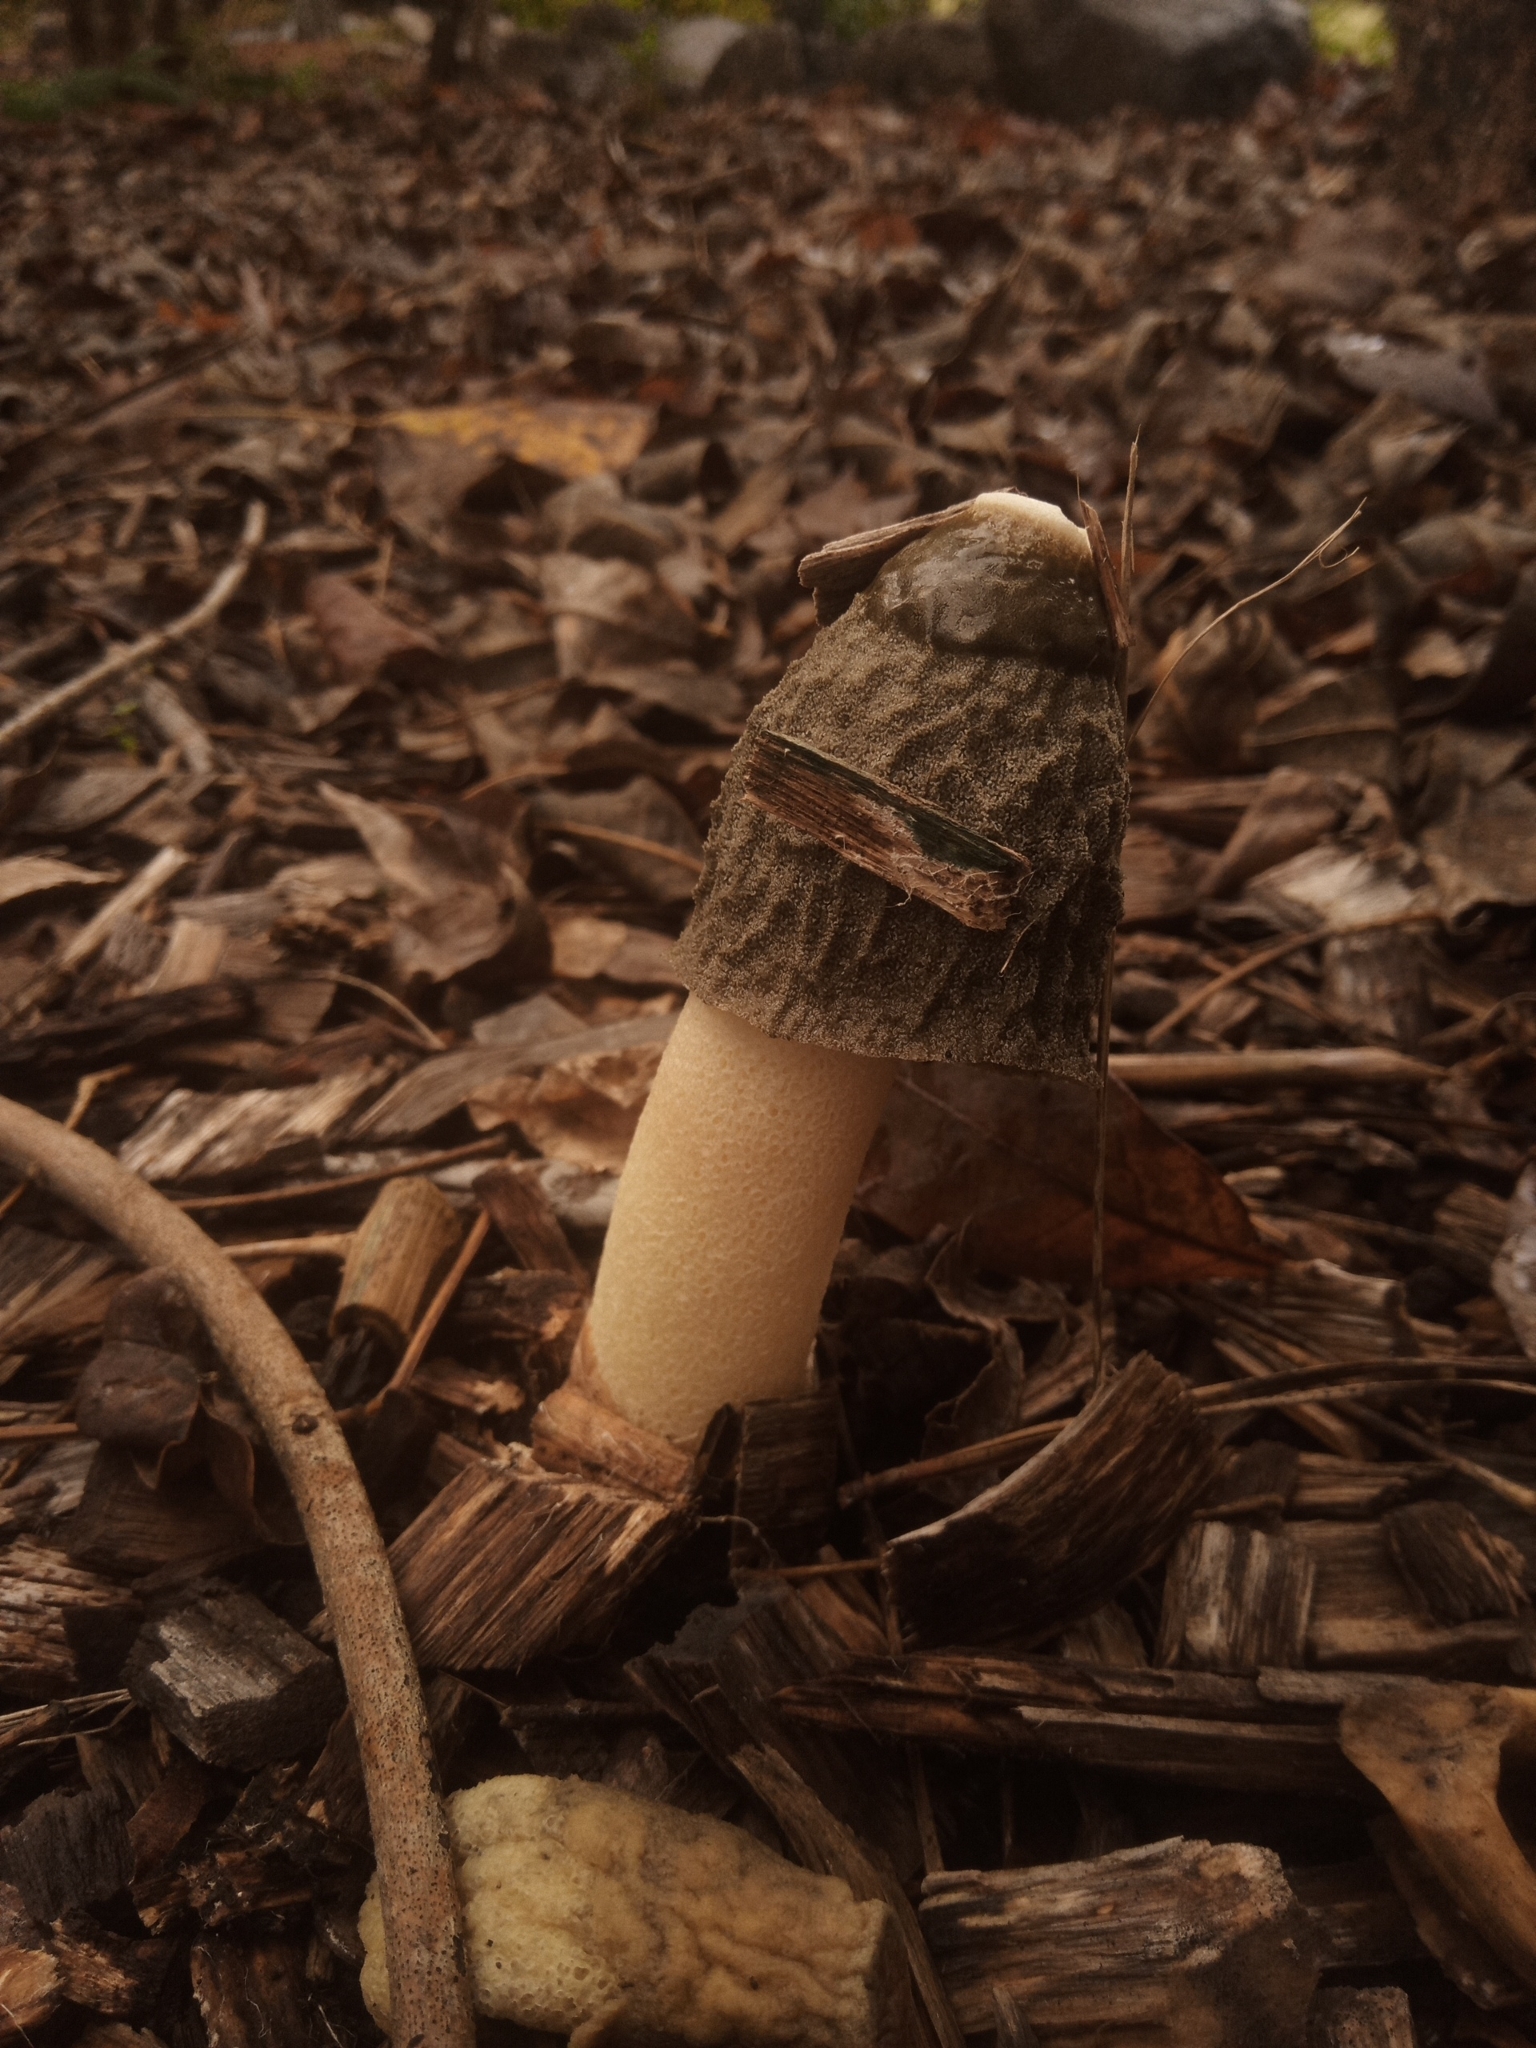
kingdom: Fungi
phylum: Basidiomycota
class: Agaricomycetes
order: Phallales
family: Phallaceae
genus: Phallus
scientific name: Phallus ravenelii
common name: Ravenel's stinkhorn
